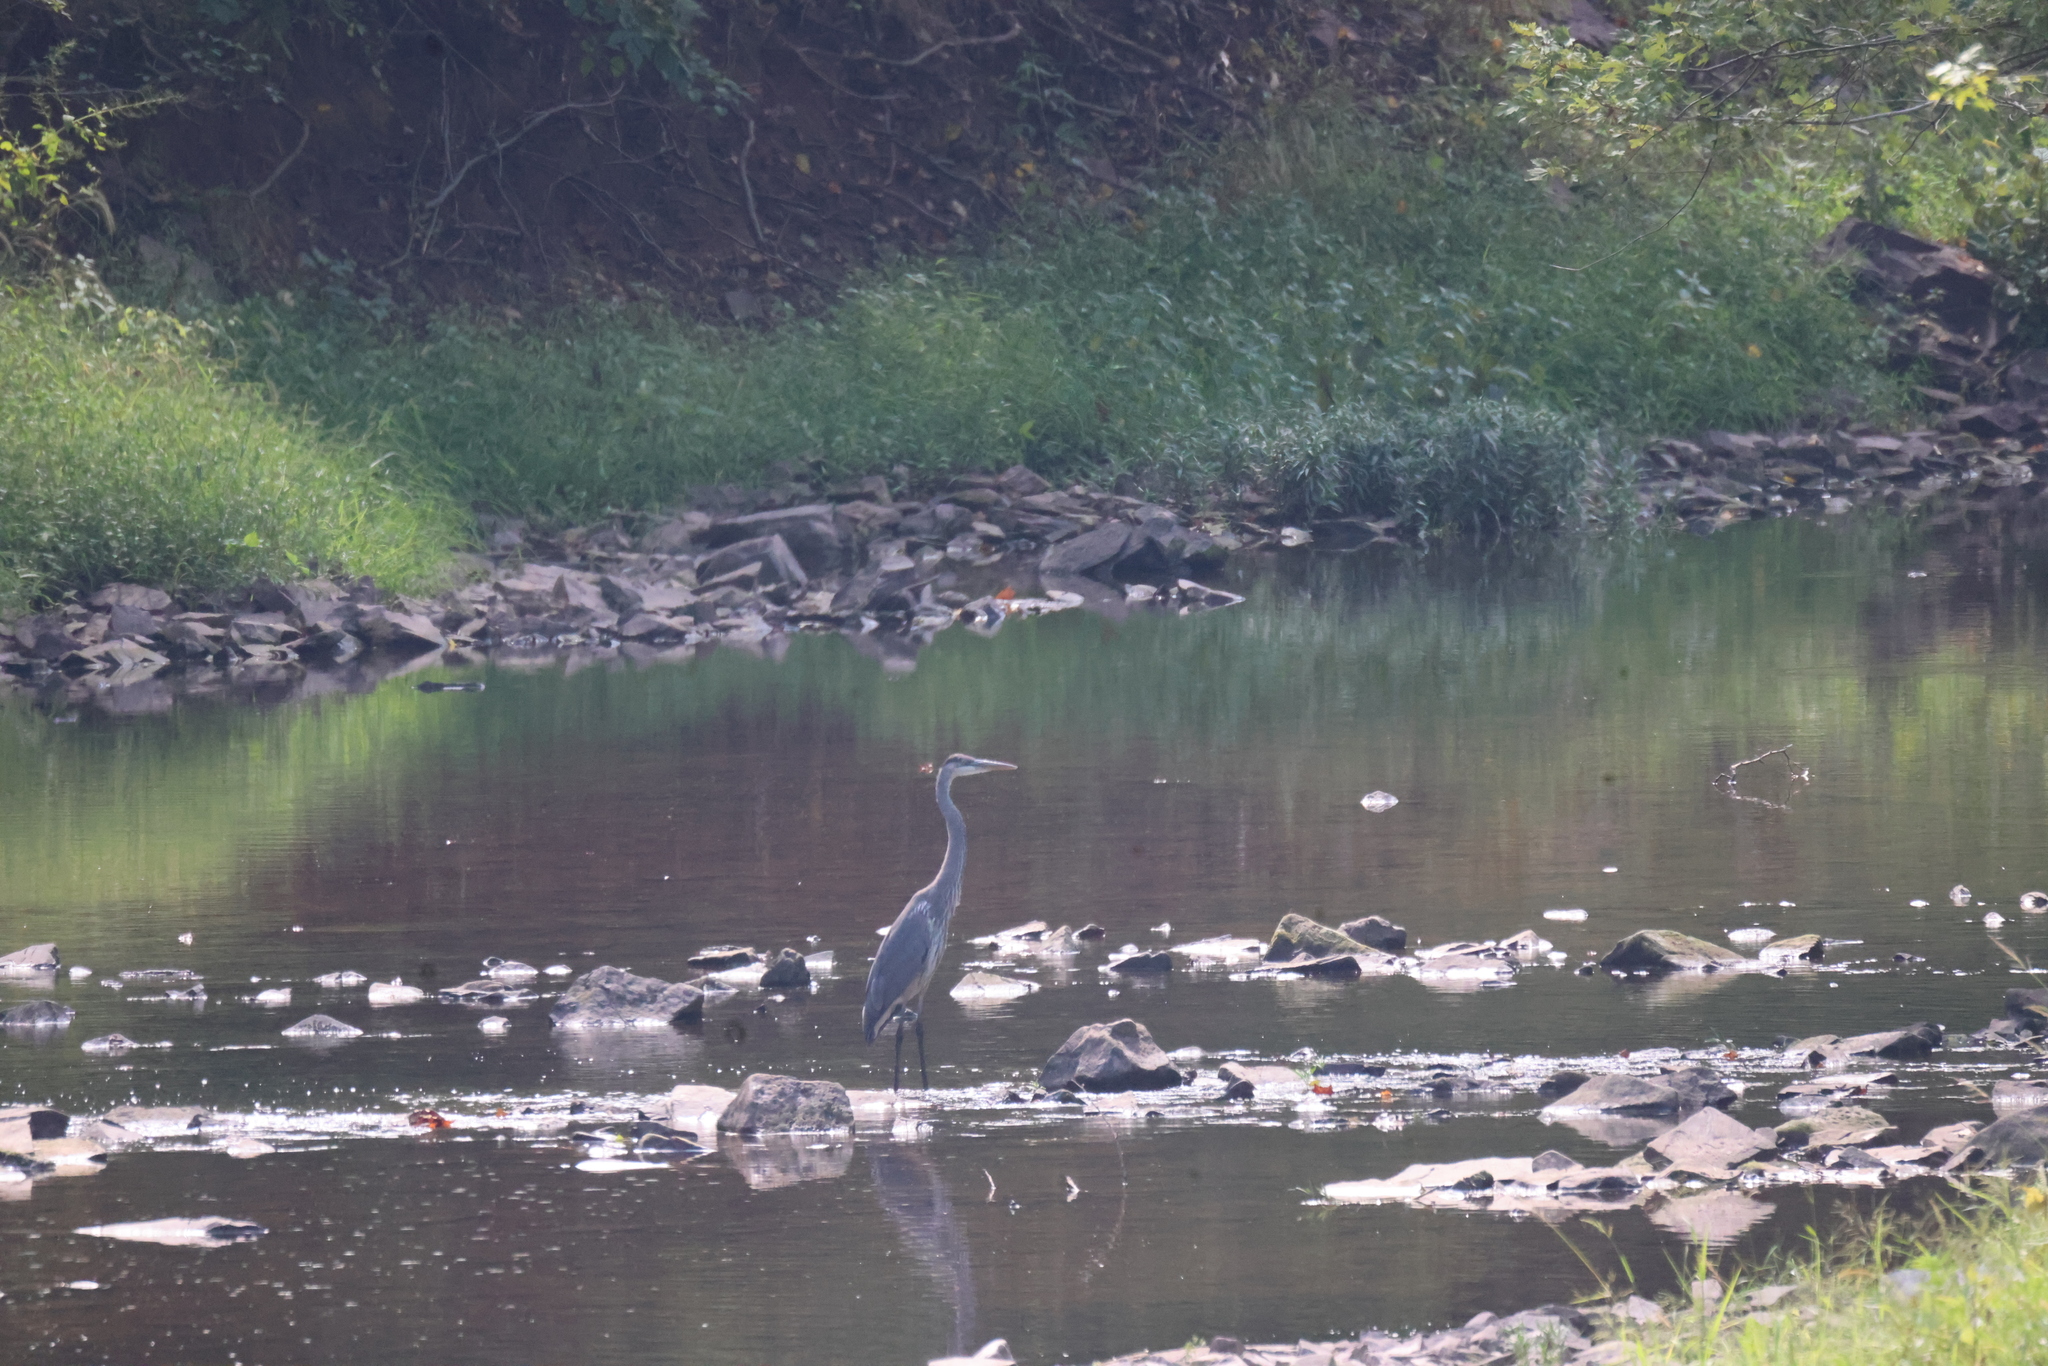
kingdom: Animalia
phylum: Chordata
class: Aves
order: Pelecaniformes
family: Ardeidae
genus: Ardea
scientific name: Ardea herodias
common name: Great blue heron
